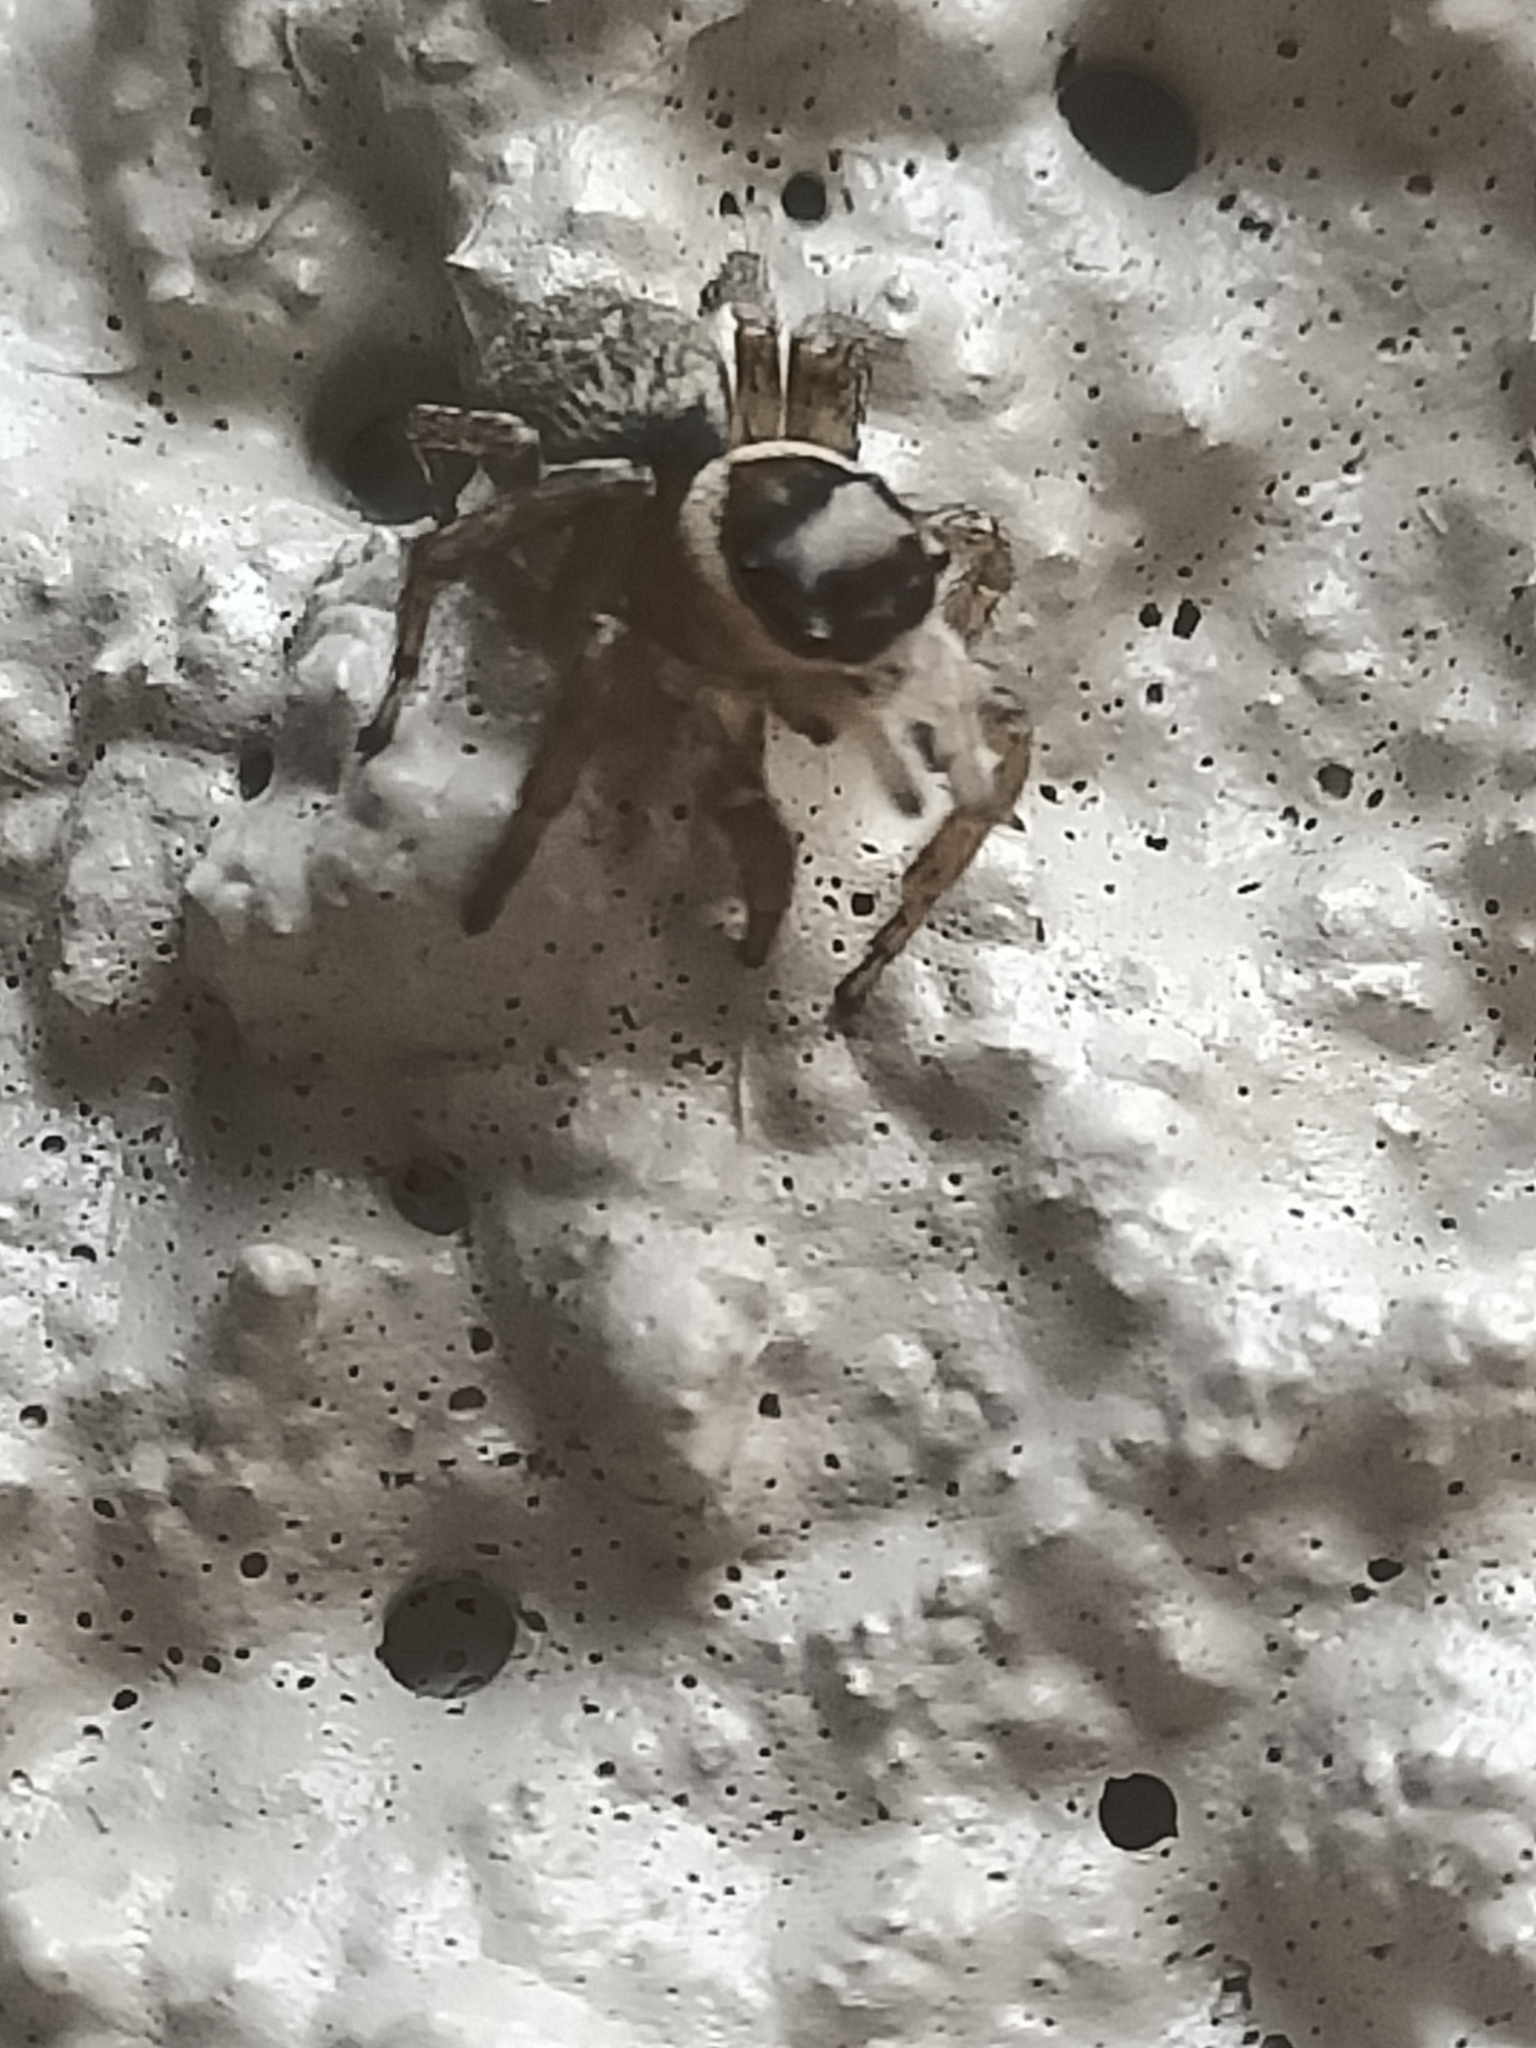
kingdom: Animalia
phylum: Arthropoda
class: Arachnida
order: Araneae
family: Salticidae
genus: Maratus
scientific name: Maratus griseus
